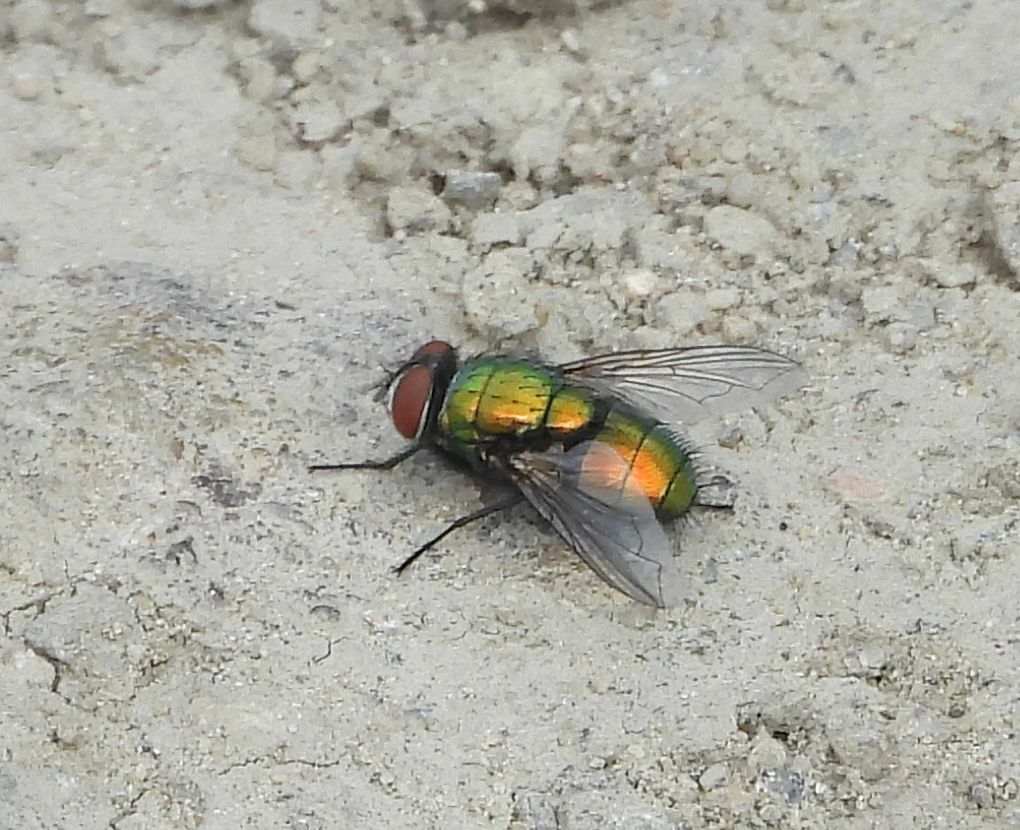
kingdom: Animalia
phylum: Arthropoda
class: Insecta
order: Diptera
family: Calliphoridae
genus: Lucilia
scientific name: Lucilia sericata
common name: Blow fly
